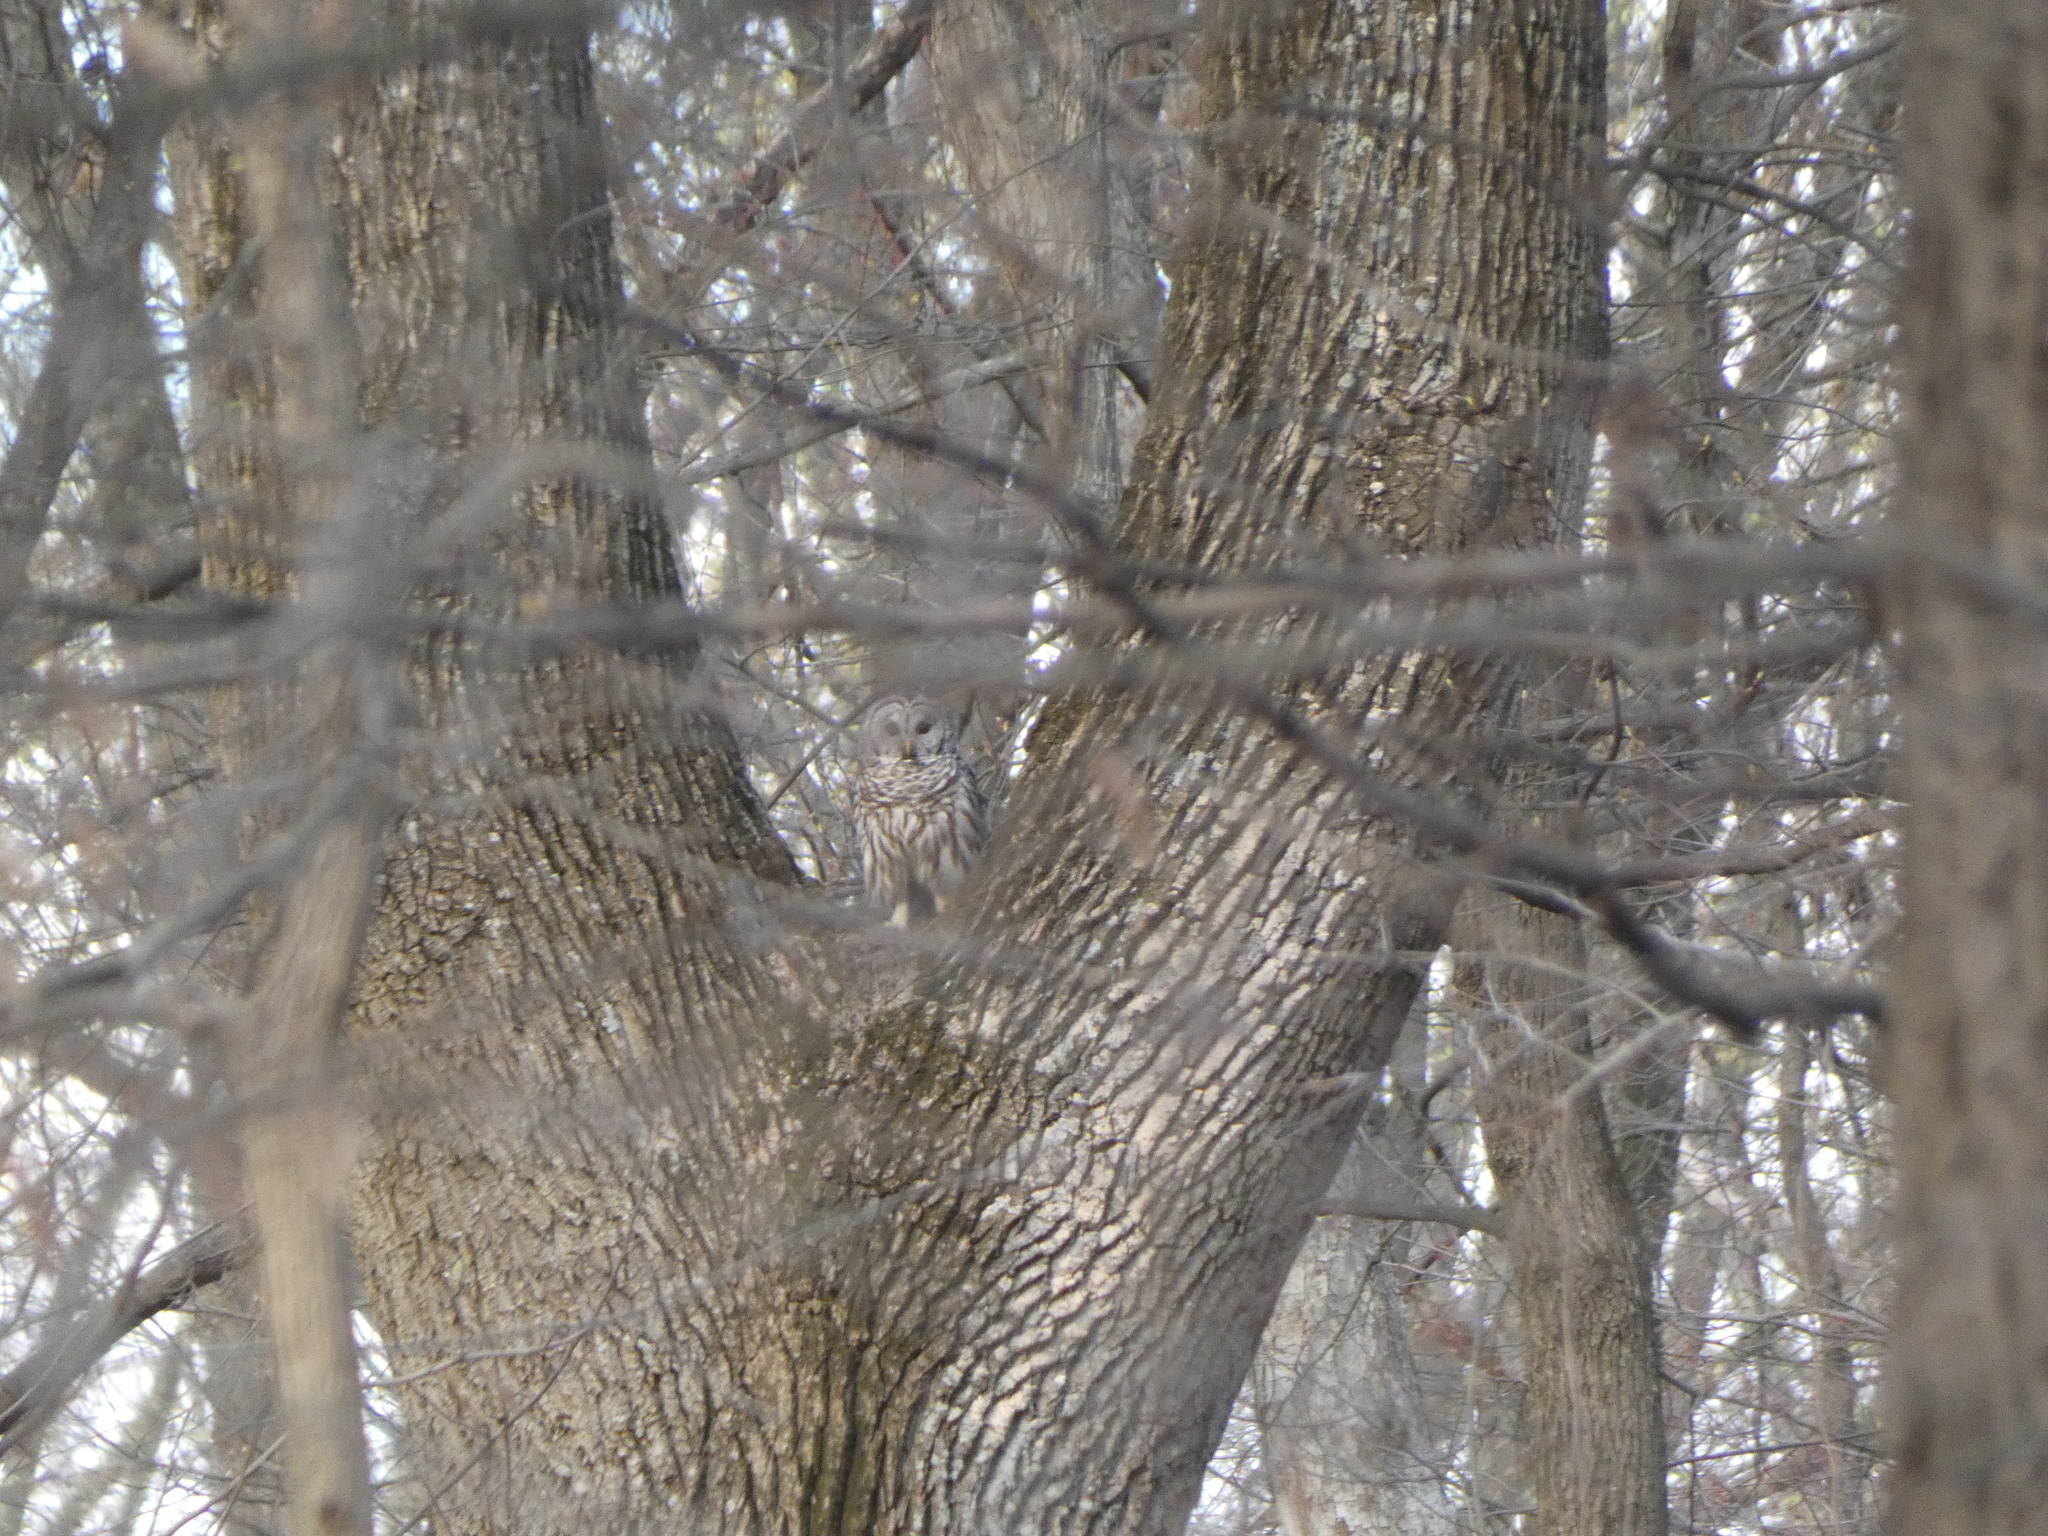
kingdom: Animalia
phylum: Chordata
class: Aves
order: Strigiformes
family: Strigidae
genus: Strix
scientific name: Strix varia
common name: Barred owl
